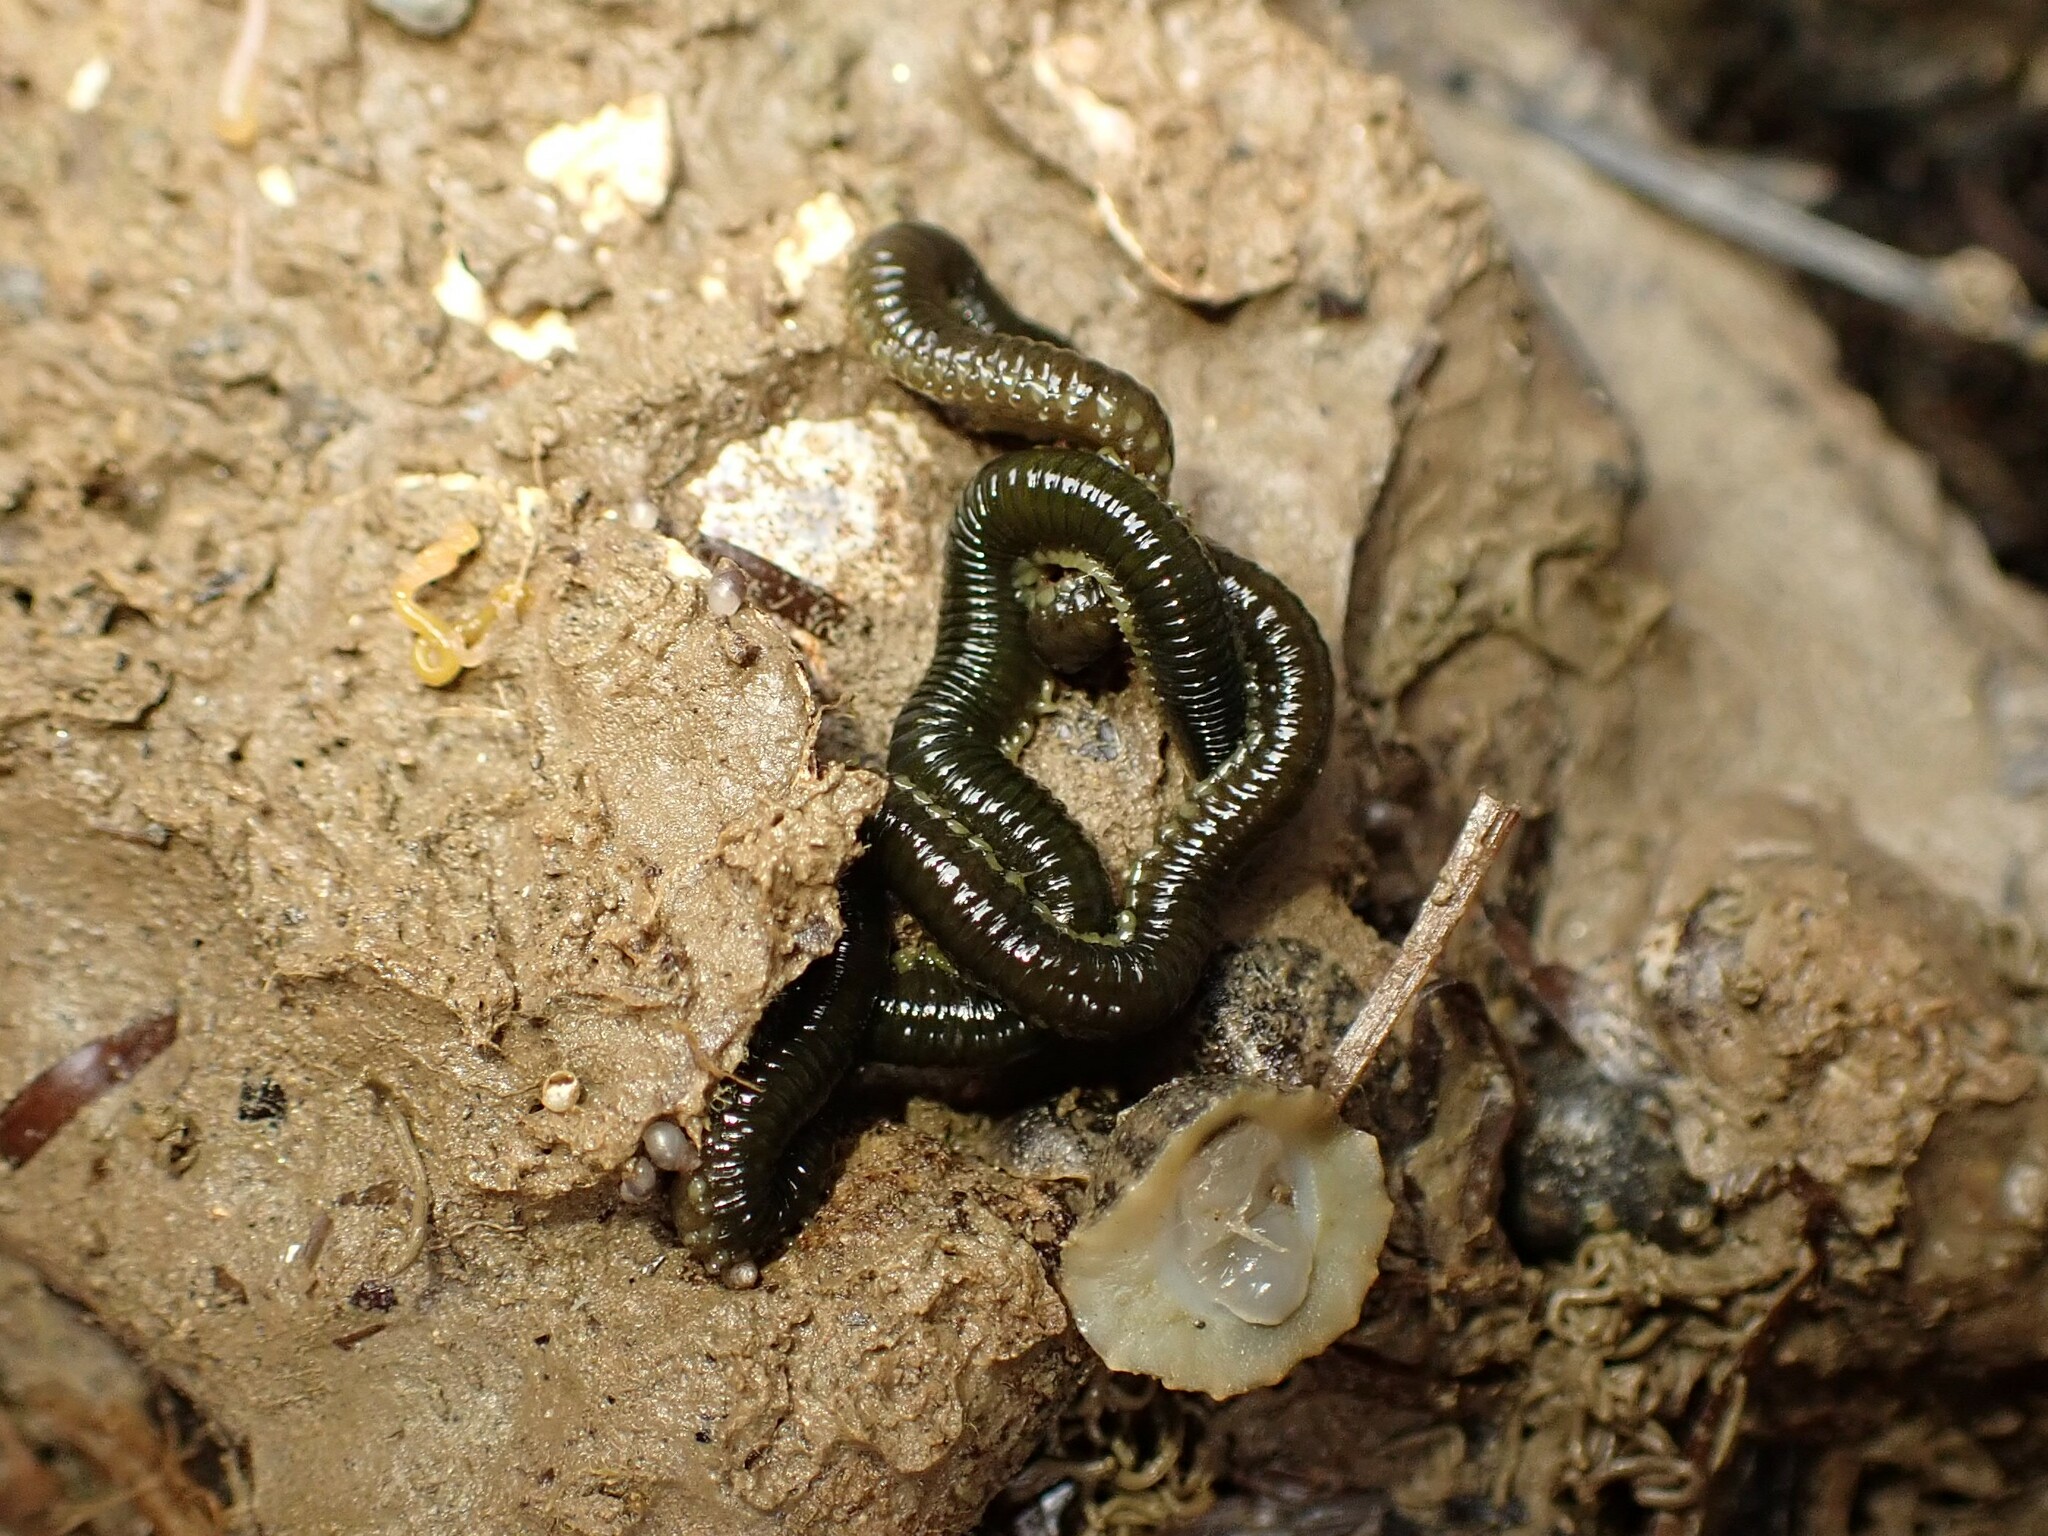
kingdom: Animalia
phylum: Annelida
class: Polychaeta
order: Phyllodocida
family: Phyllodocidae
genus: Eulalia
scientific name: Eulalia microphylla
